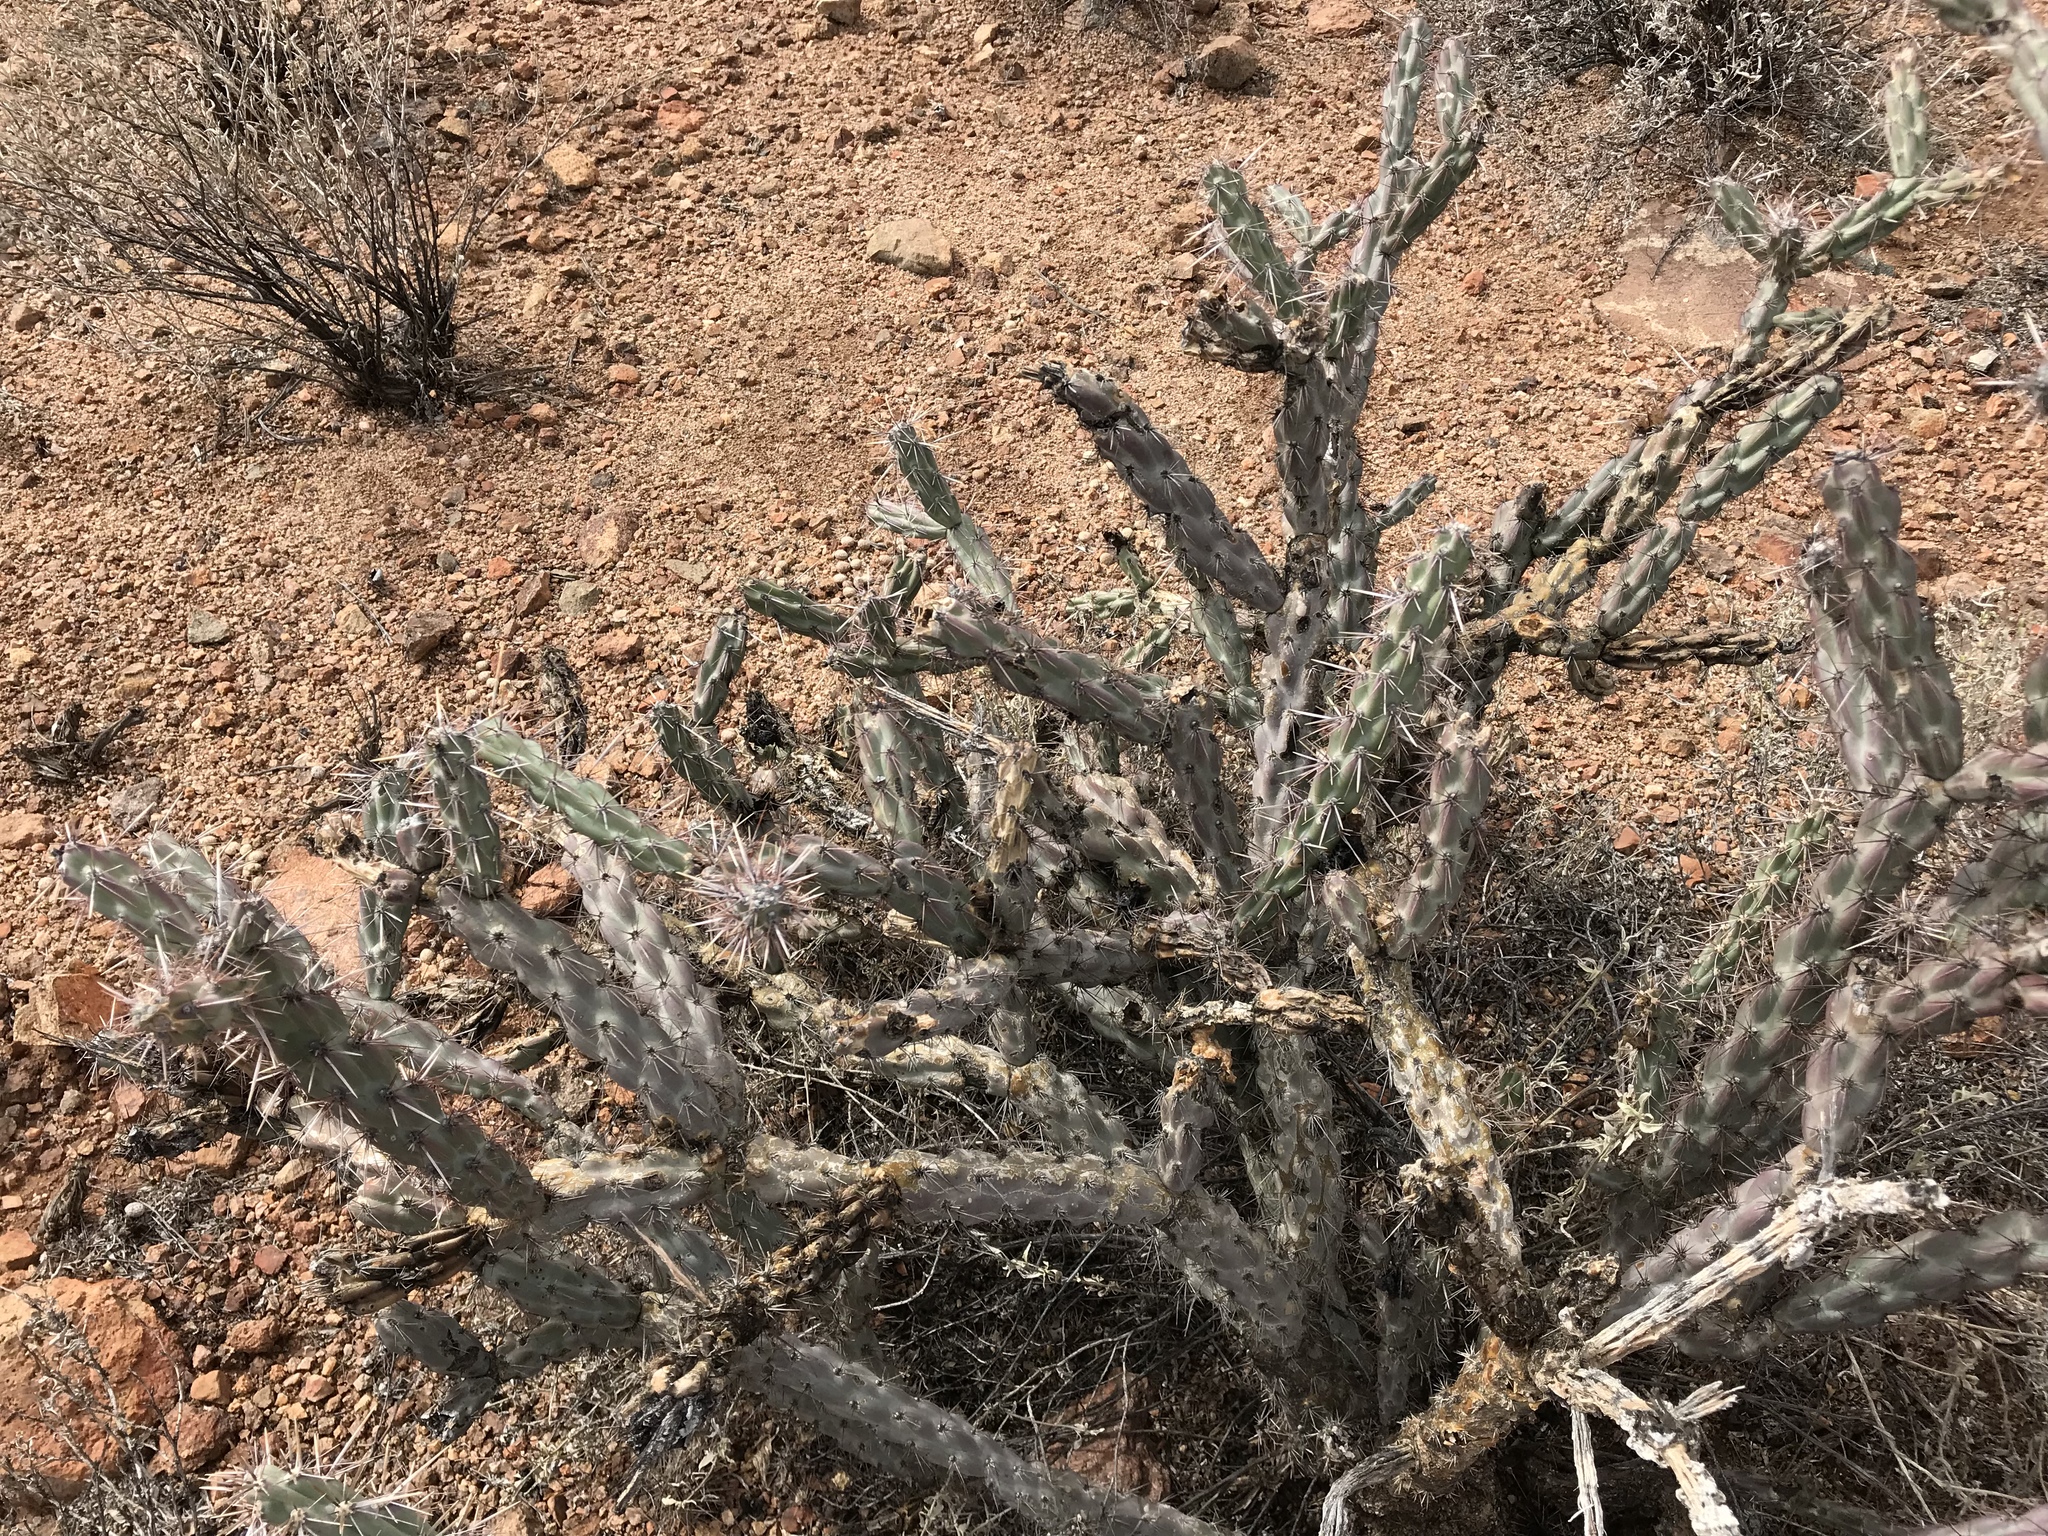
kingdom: Plantae
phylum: Tracheophyta
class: Magnoliopsida
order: Caryophyllales
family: Cactaceae
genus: Cylindropuntia
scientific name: Cylindropuntia acanthocarpa
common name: Buckhorn cholla
